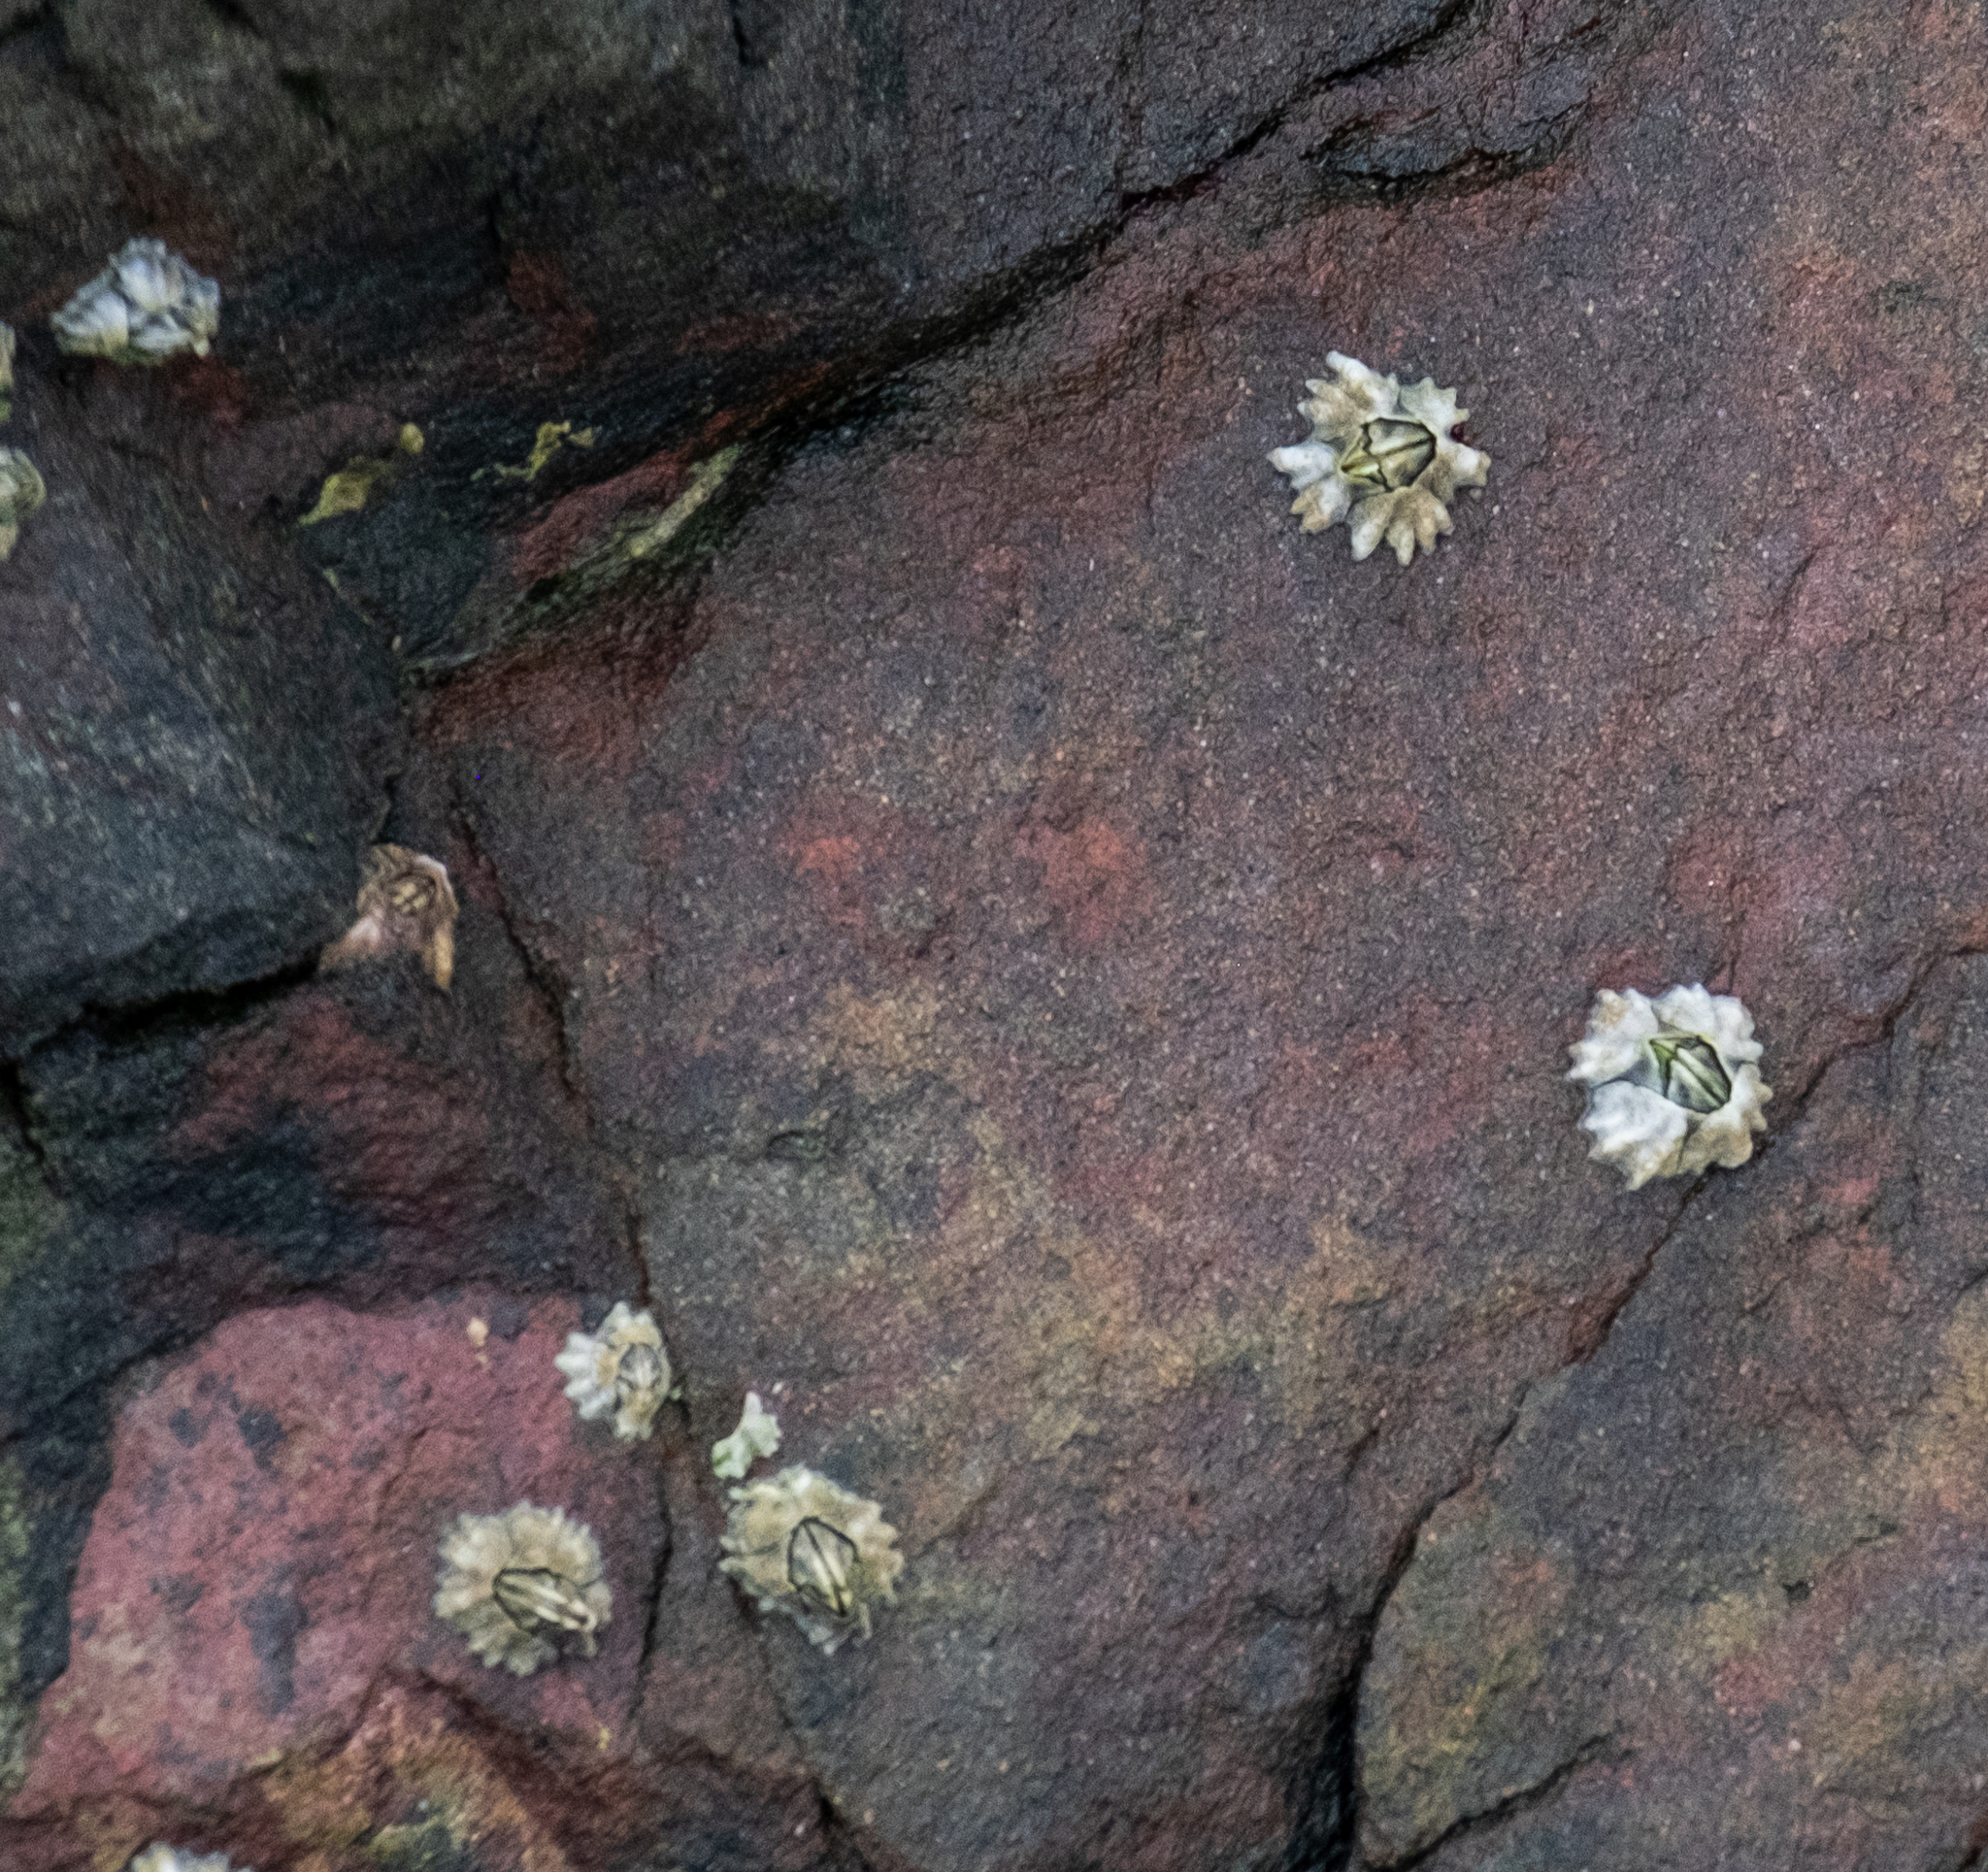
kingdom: Animalia
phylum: Arthropoda
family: Elminiidae
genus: Austrominius
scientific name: Austrominius modestus
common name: Australasian barnacle
